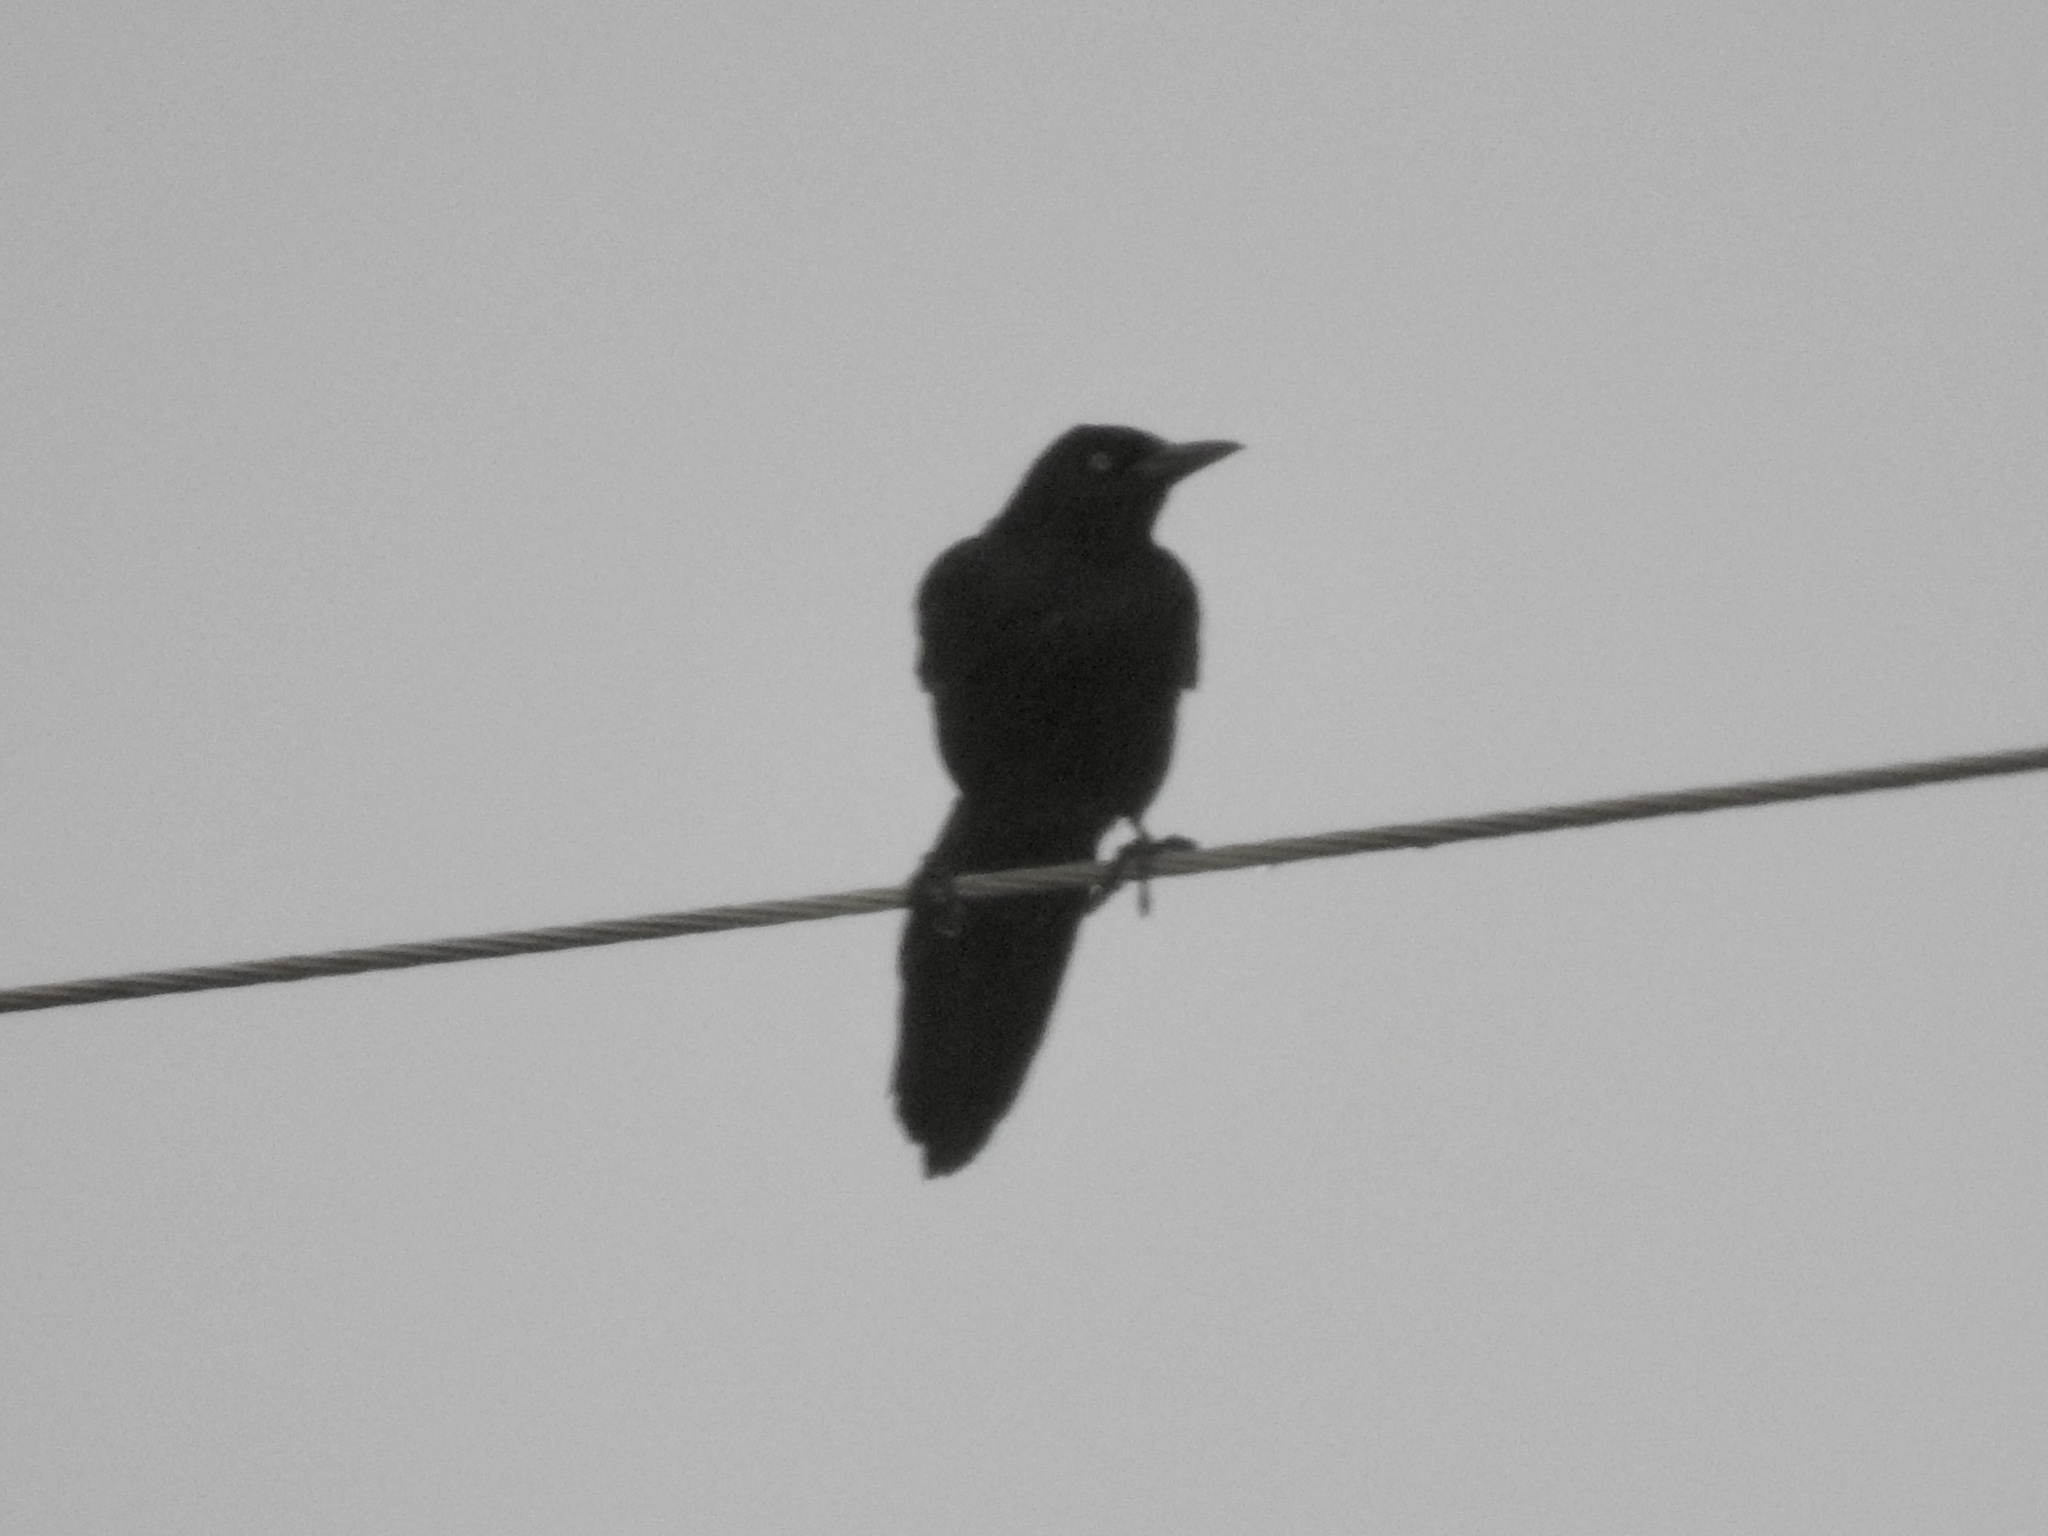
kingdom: Animalia
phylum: Chordata
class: Aves
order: Passeriformes
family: Icteridae
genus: Quiscalus
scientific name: Quiscalus mexicanus
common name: Great-tailed grackle
